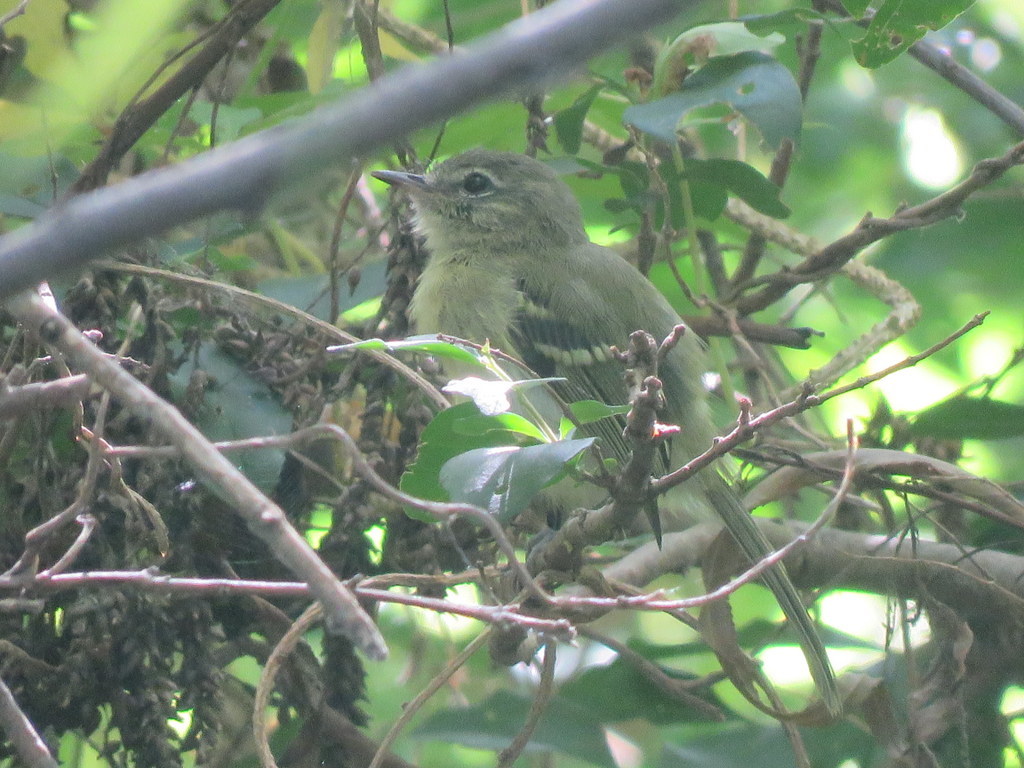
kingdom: Animalia
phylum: Chordata
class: Aves
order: Passeriformes
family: Tyrannidae
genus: Phylloscartes
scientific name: Phylloscartes ventralis
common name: Mottle-cheeked tyrannulet
